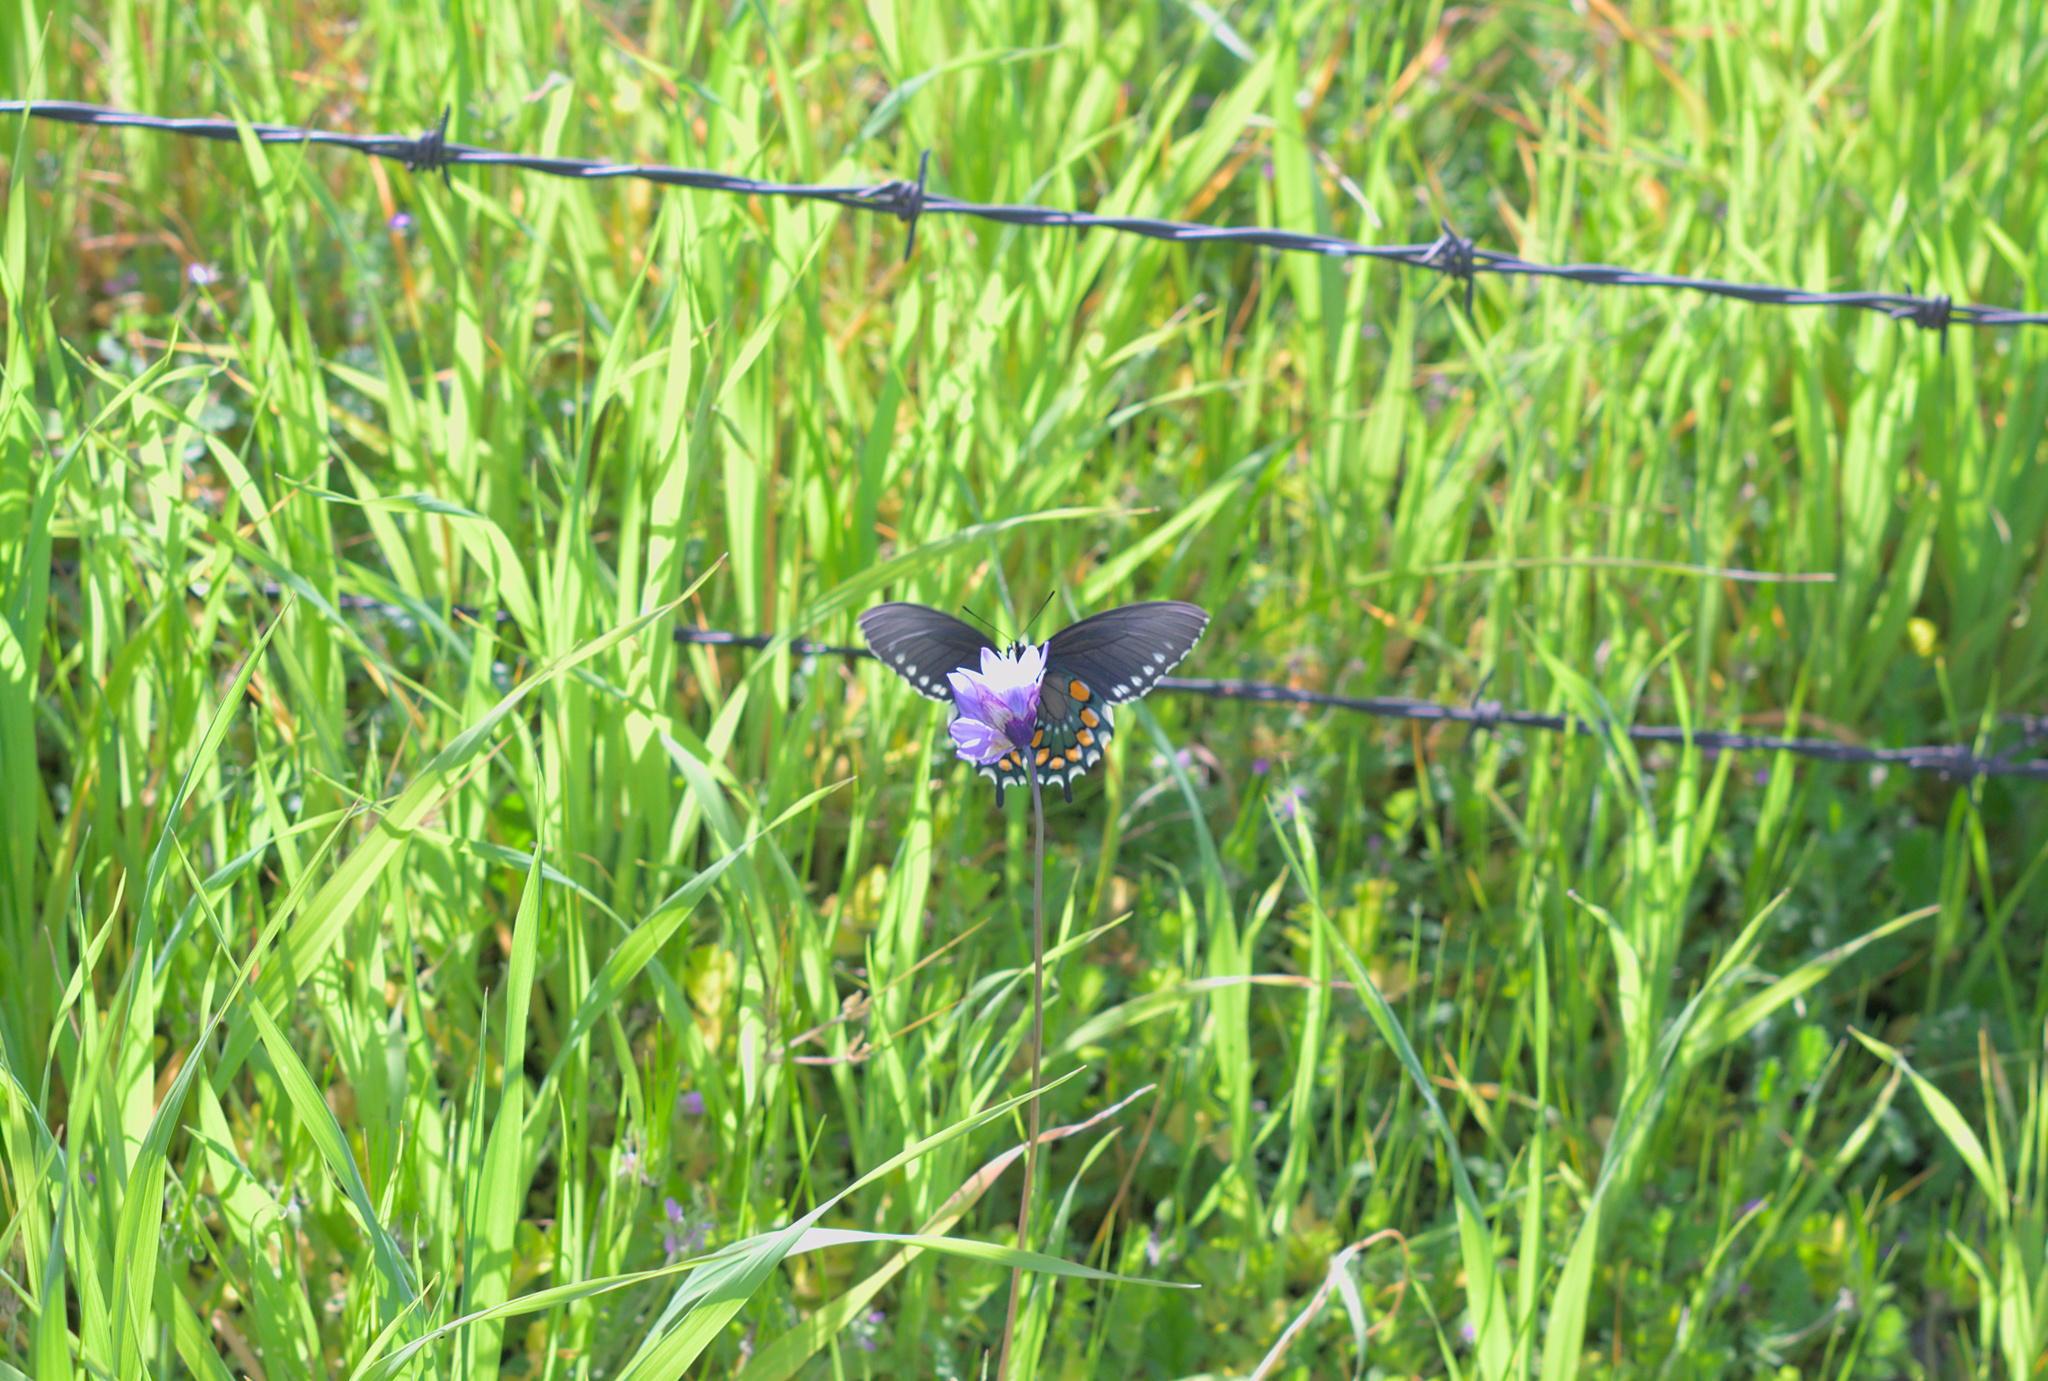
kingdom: Animalia
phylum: Arthropoda
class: Insecta
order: Lepidoptera
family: Papilionidae
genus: Battus
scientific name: Battus philenor
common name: Pipevine swallowtail
